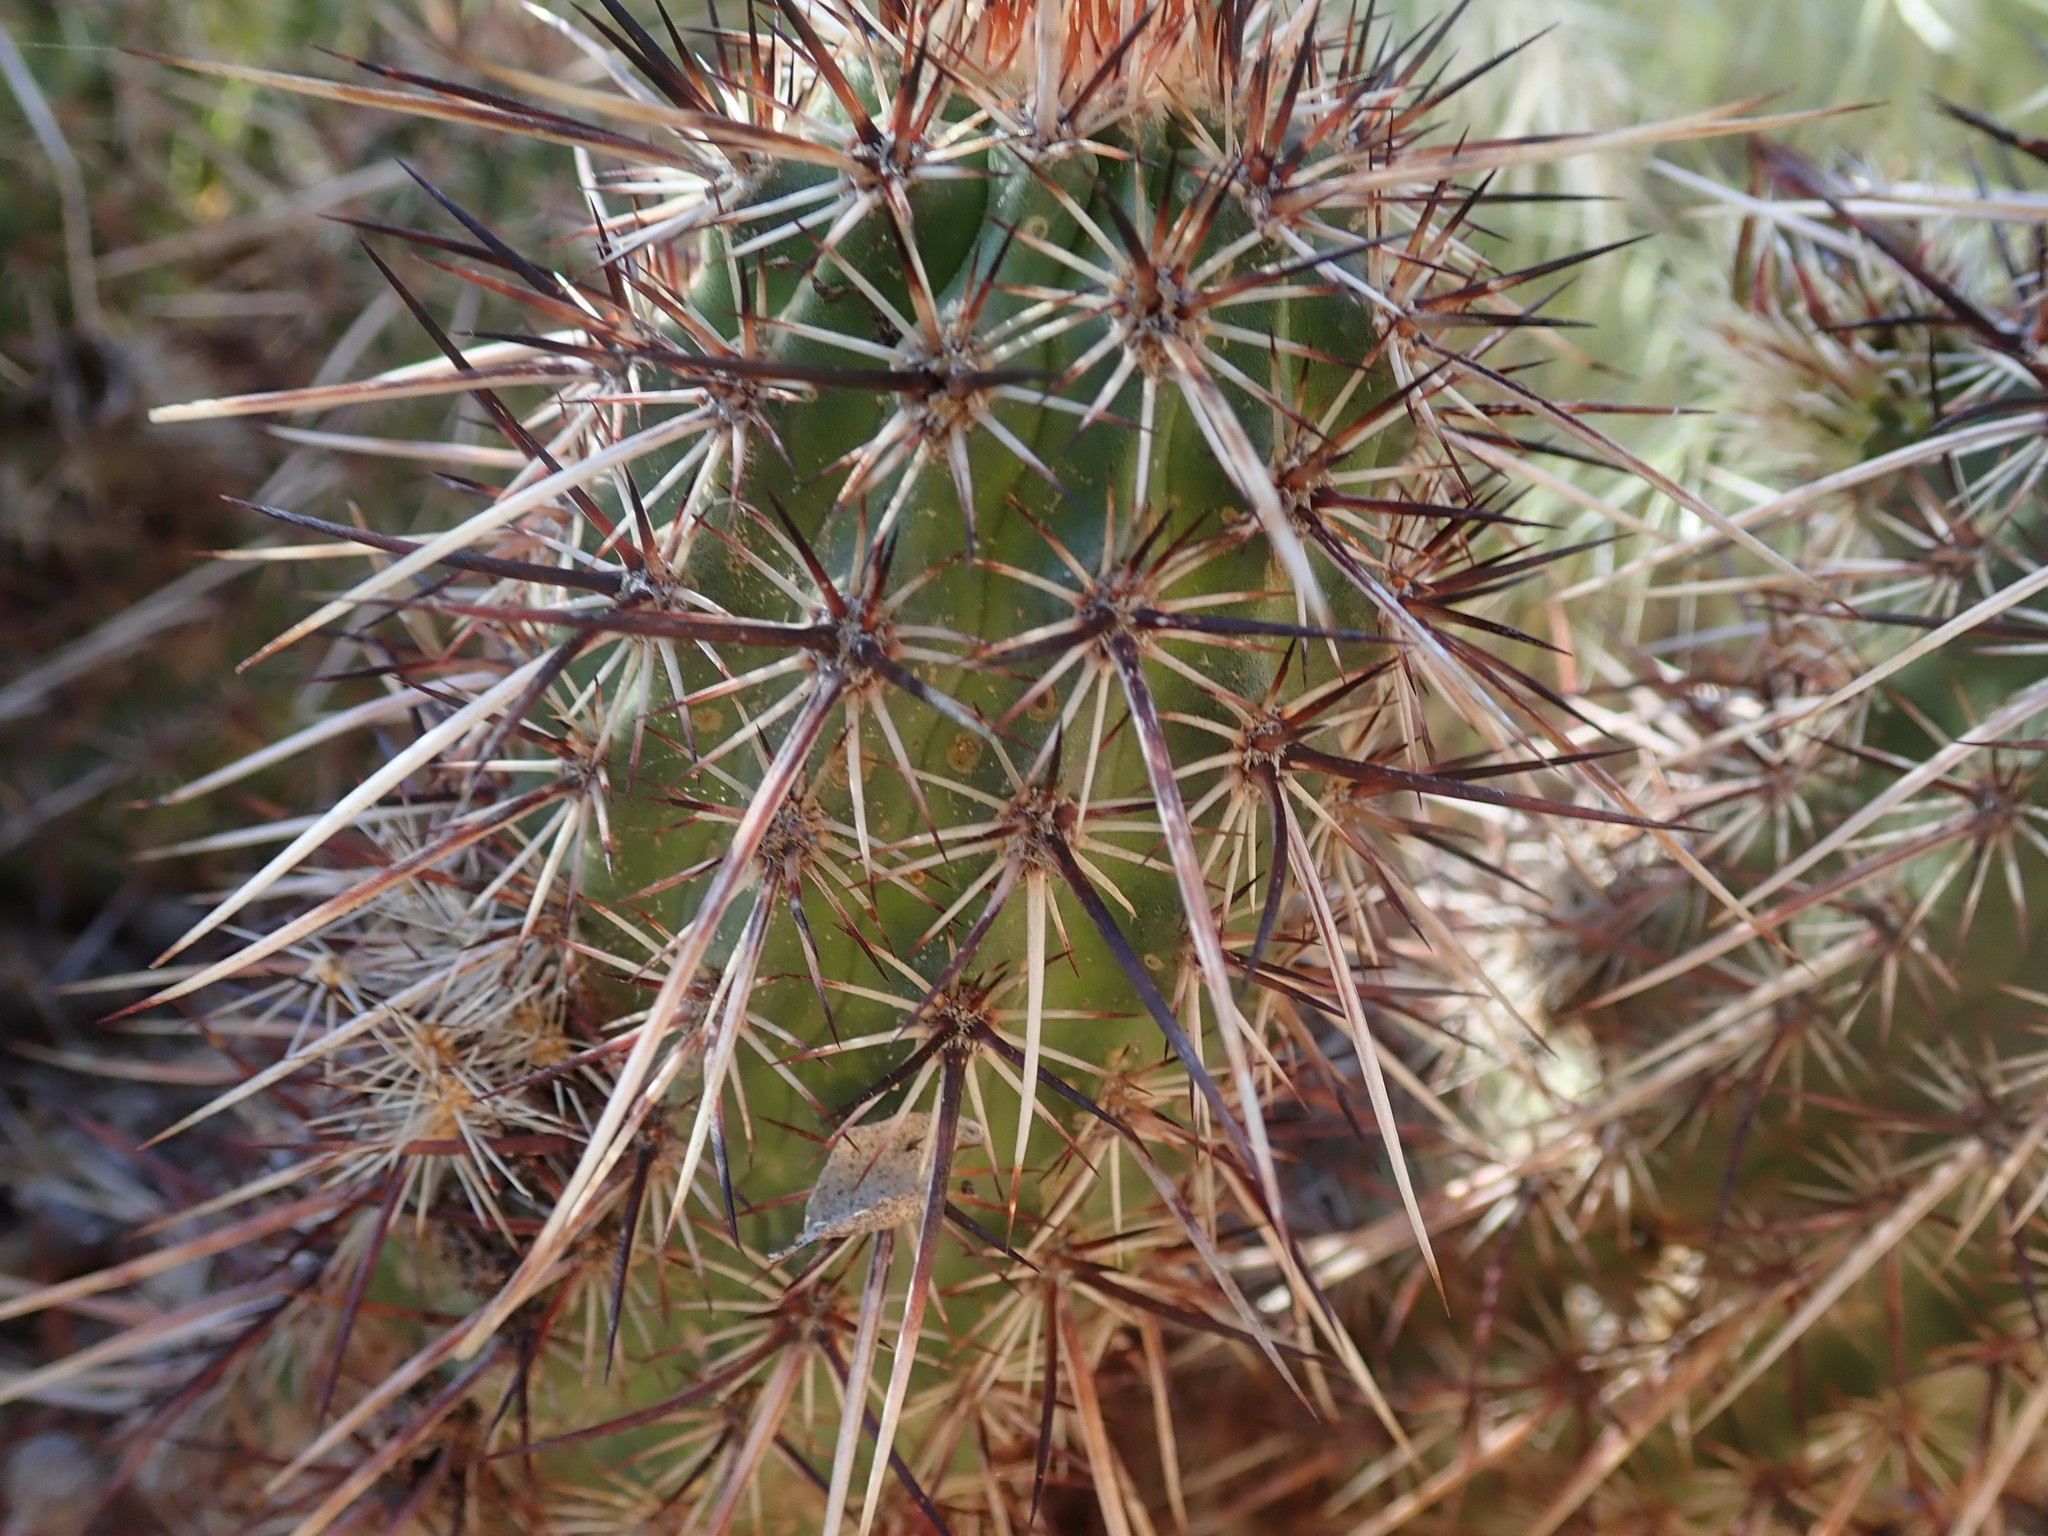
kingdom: Plantae
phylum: Tracheophyta
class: Magnoliopsida
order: Caryophyllales
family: Cactaceae
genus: Echinocereus
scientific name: Echinocereus relictus
